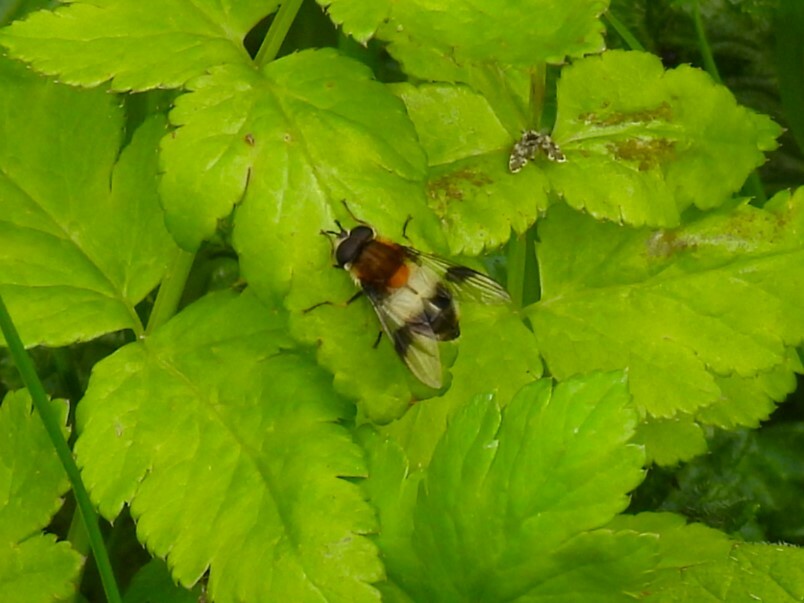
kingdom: Animalia
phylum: Arthropoda
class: Insecta
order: Diptera
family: Syrphidae
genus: Leucozona
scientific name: Leucozona lucorum
